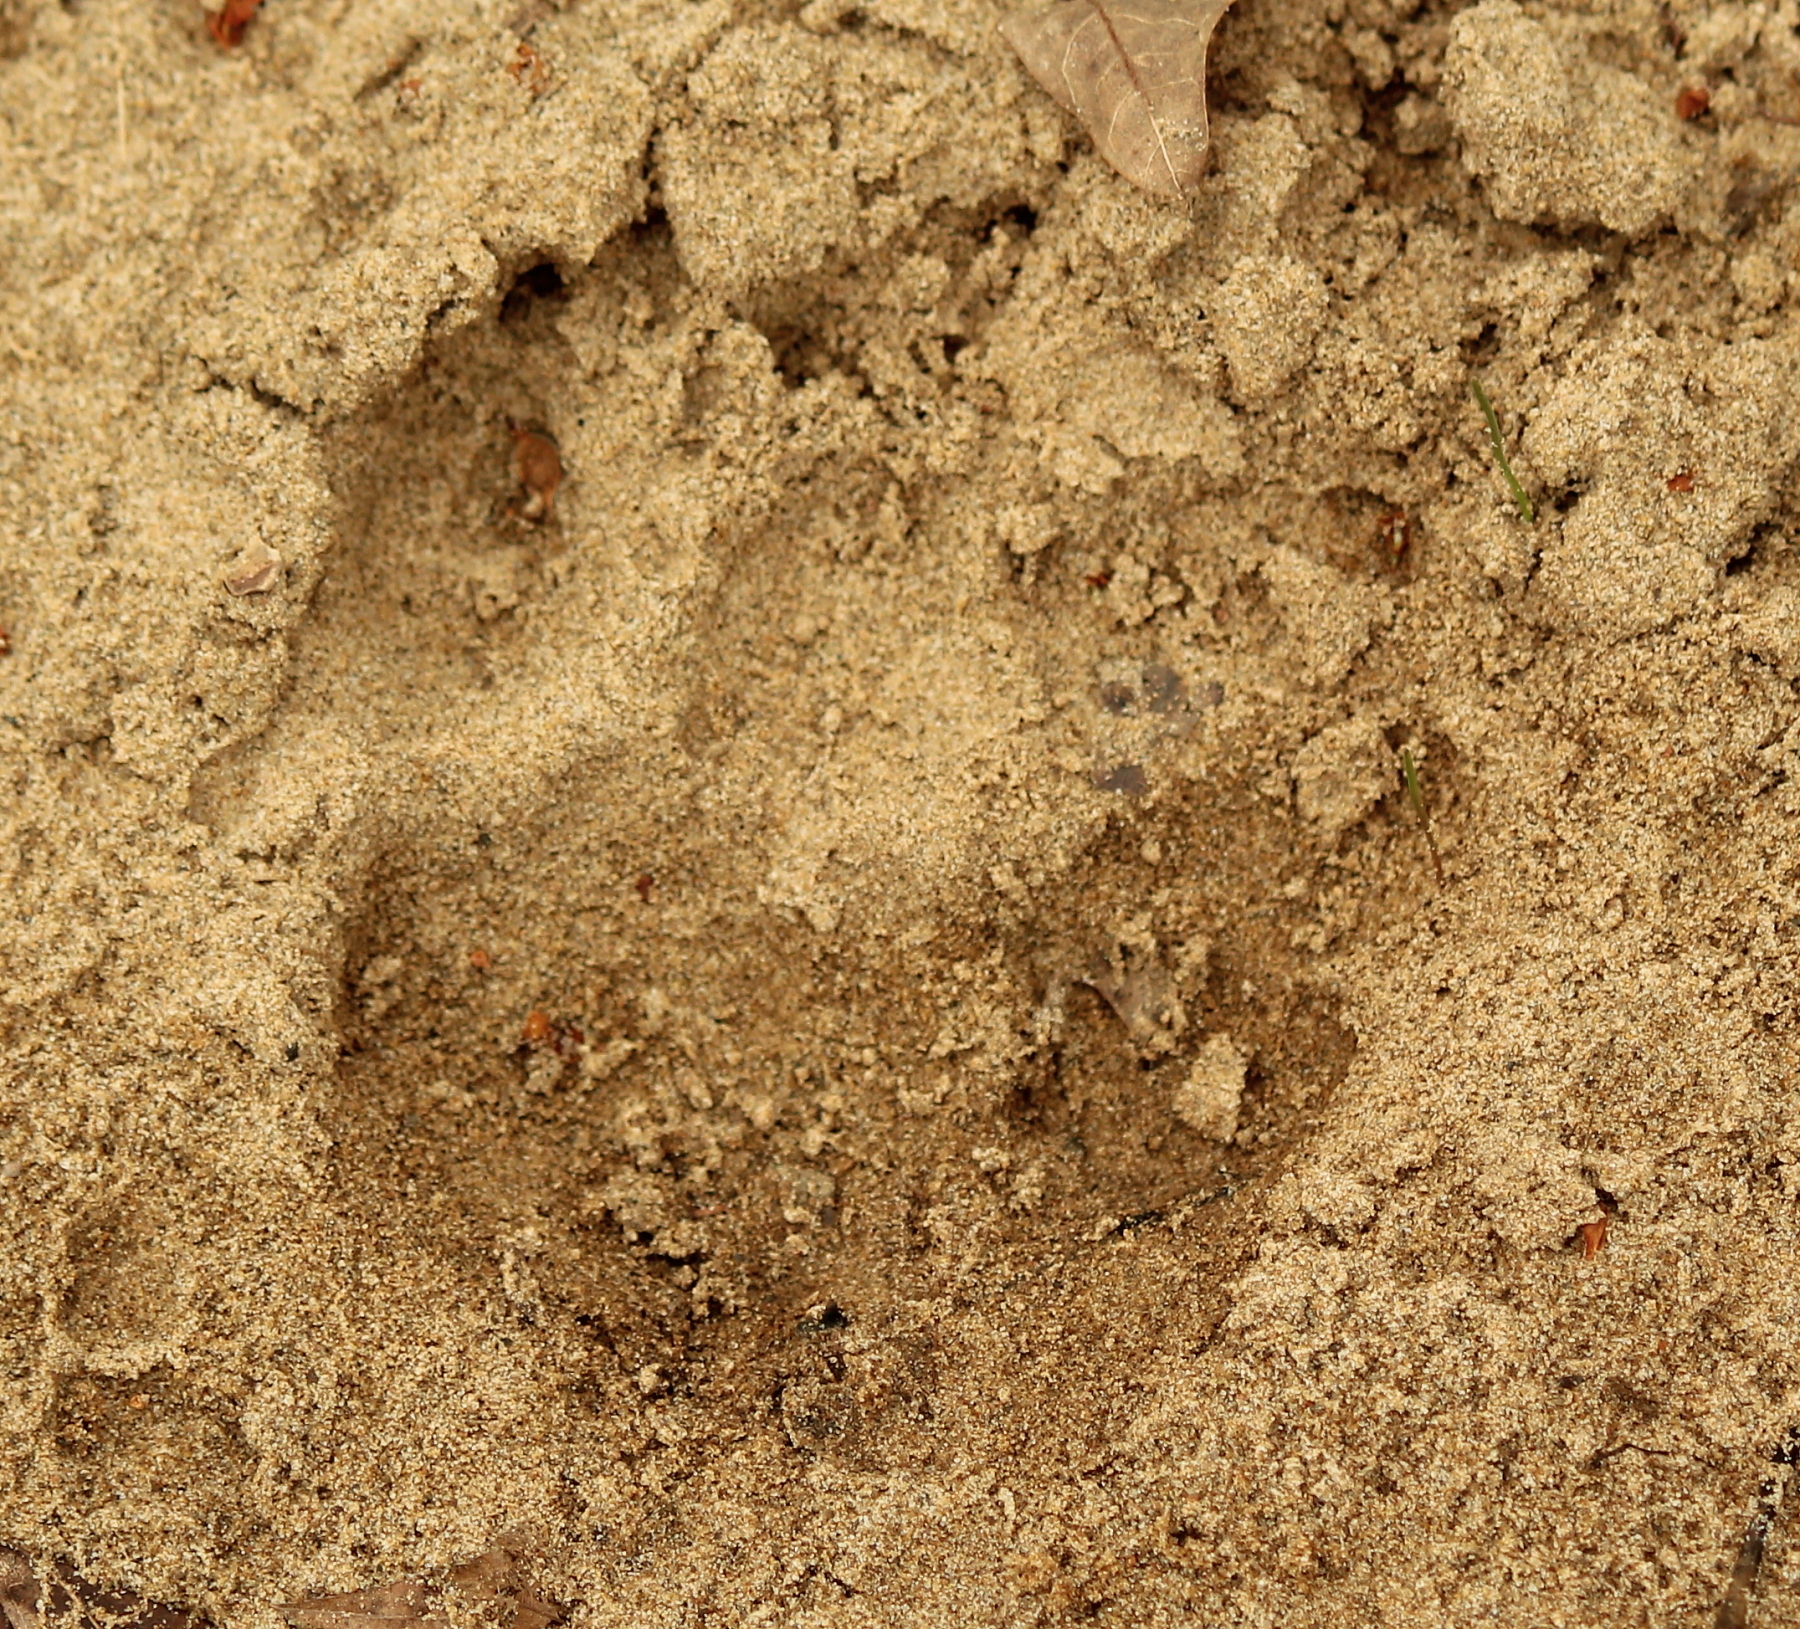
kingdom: Animalia
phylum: Chordata
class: Mammalia
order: Carnivora
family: Canidae
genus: Canis
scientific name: Canis lupus
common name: Gray wolf
